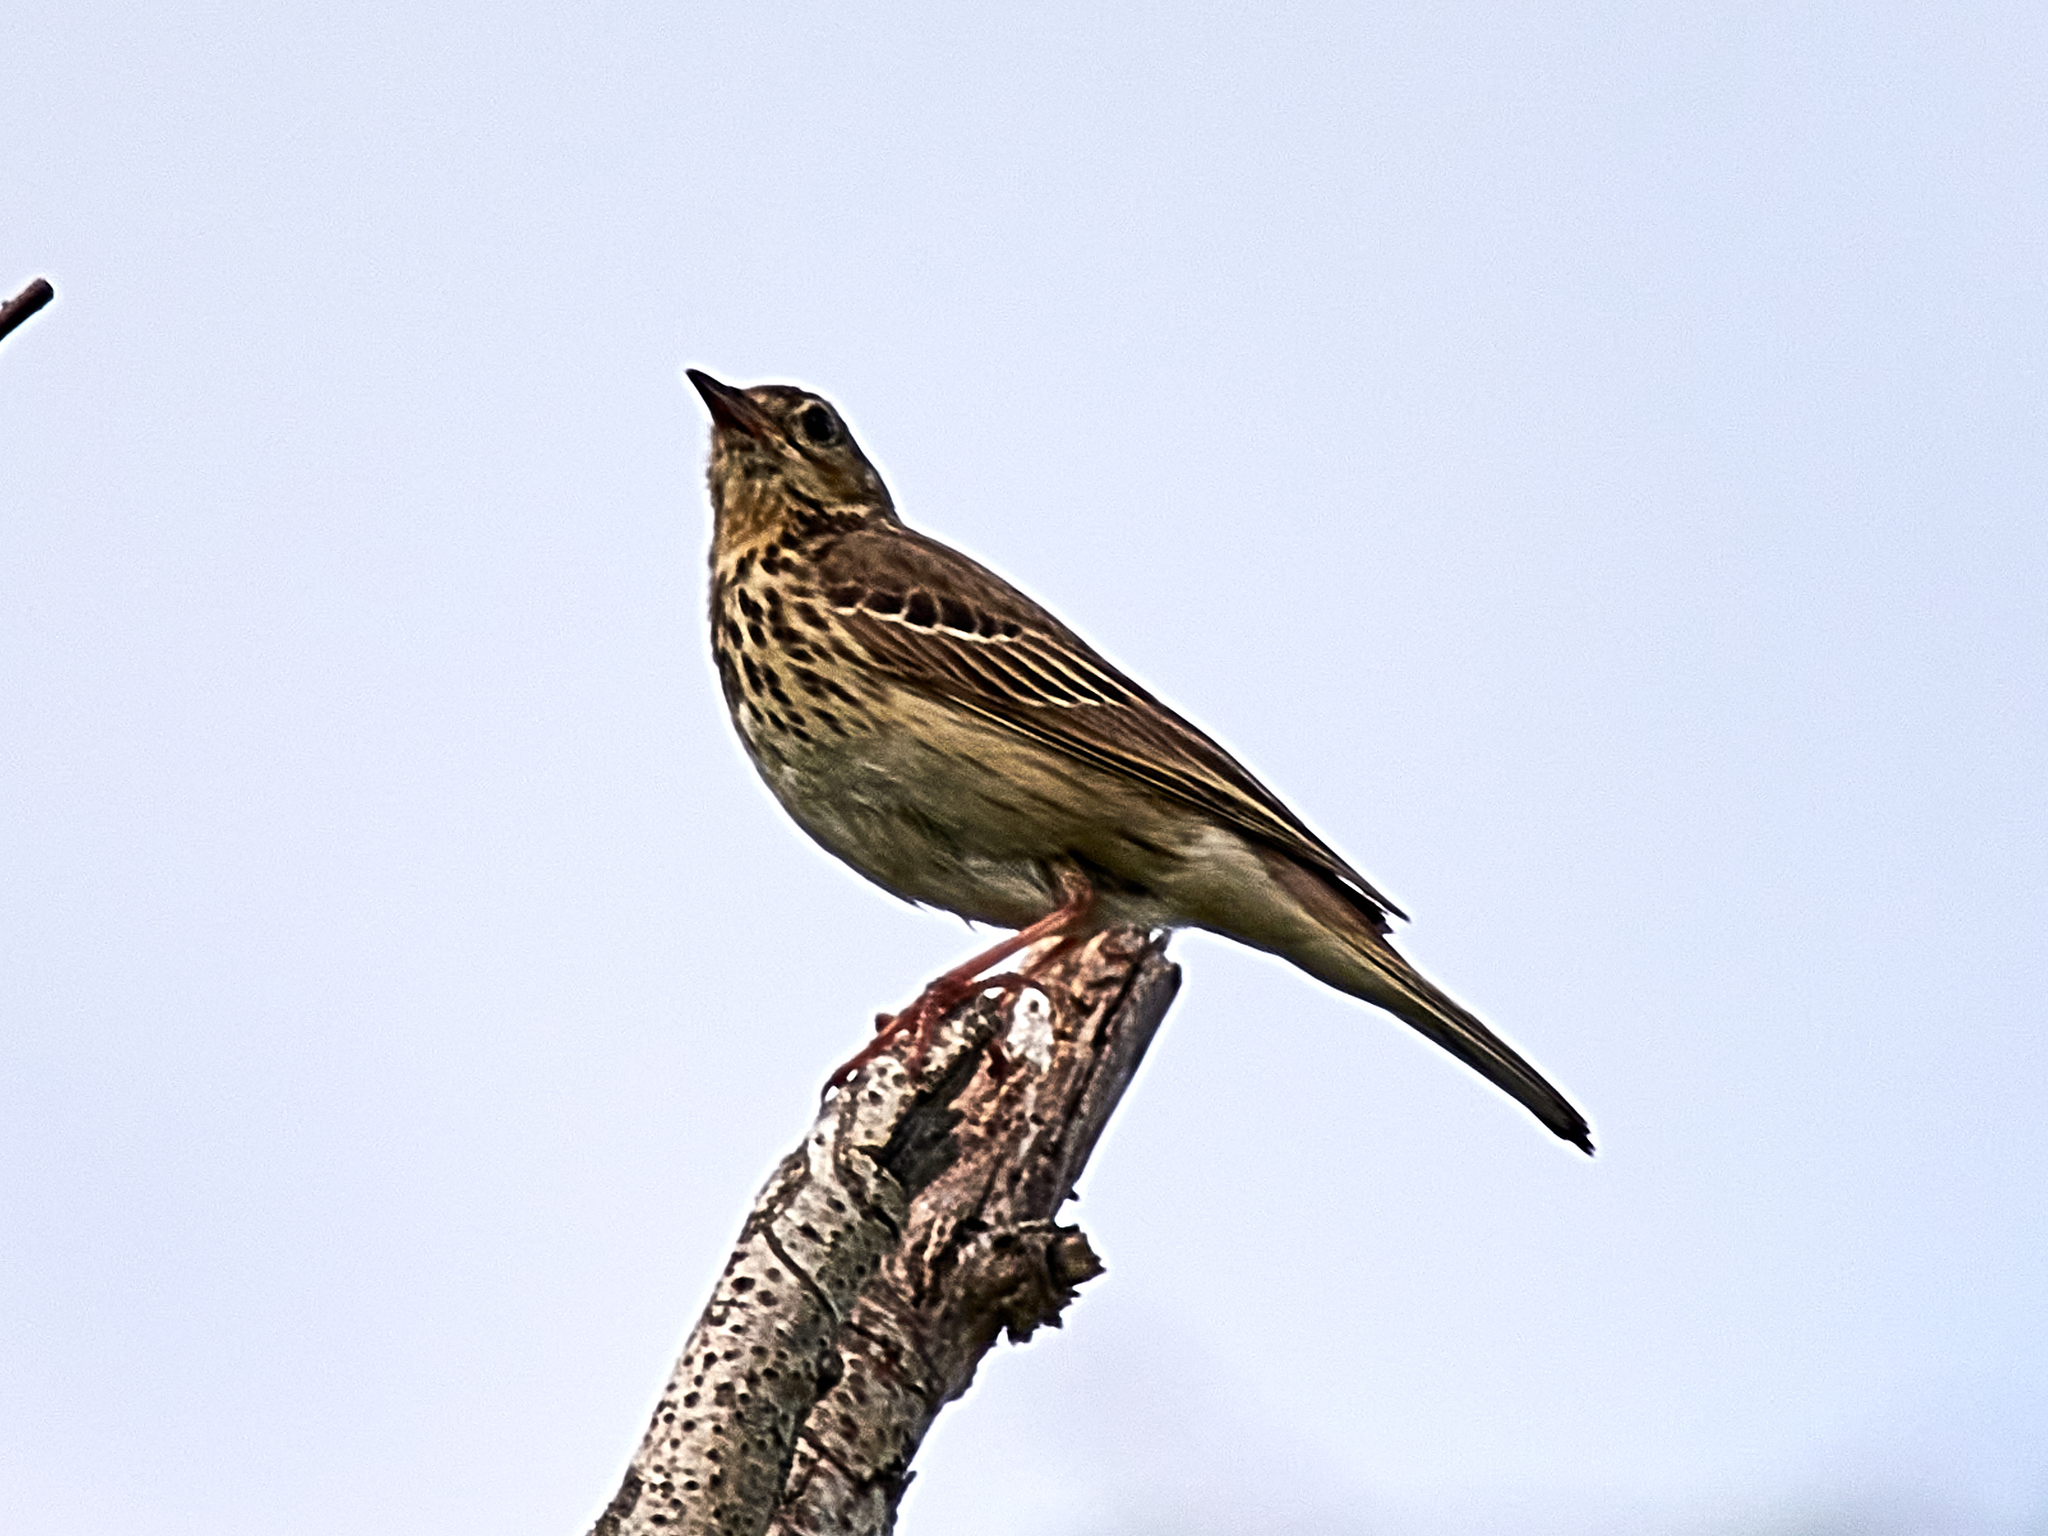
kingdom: Animalia
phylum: Chordata
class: Aves
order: Passeriformes
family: Motacillidae
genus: Anthus
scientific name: Anthus trivialis
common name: Tree pipit
